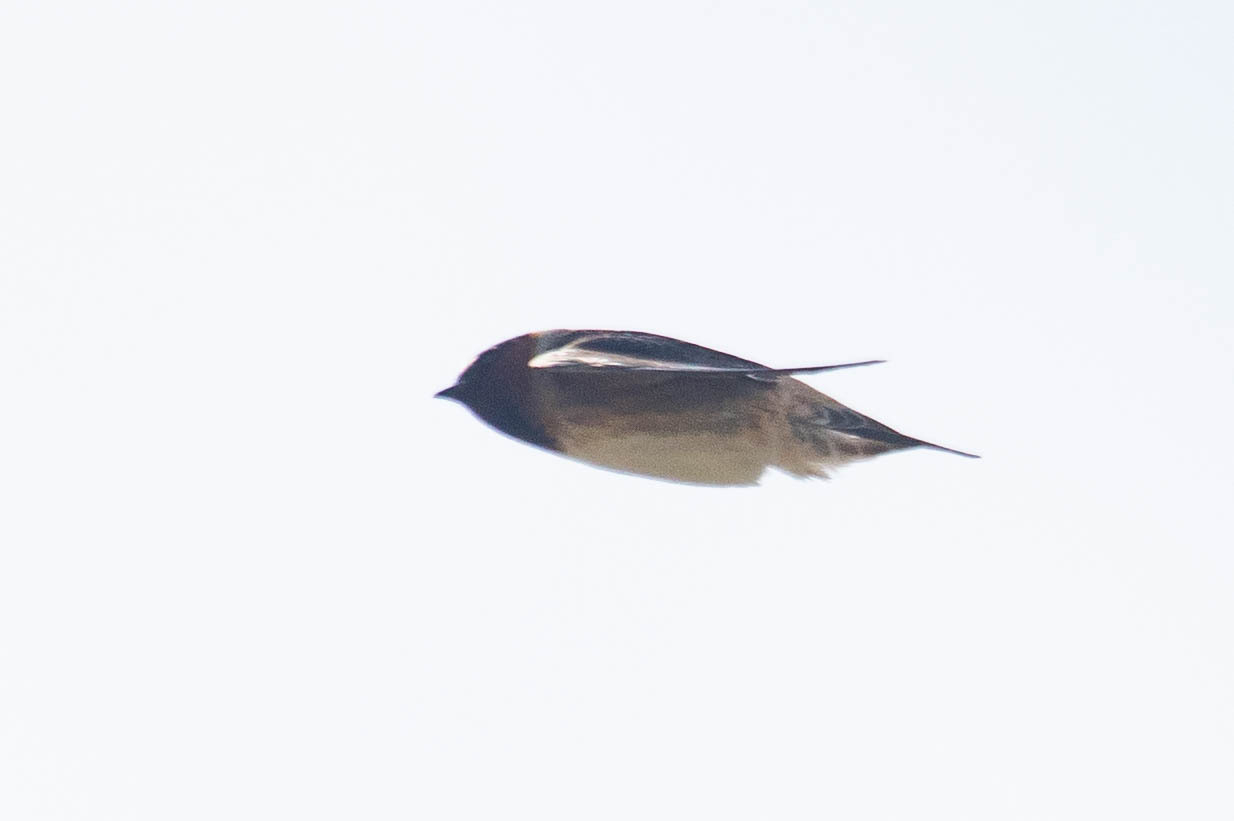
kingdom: Animalia
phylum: Chordata
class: Aves
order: Passeriformes
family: Hirundinidae
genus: Petrochelidon
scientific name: Petrochelidon pyrrhonota
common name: American cliff swallow
